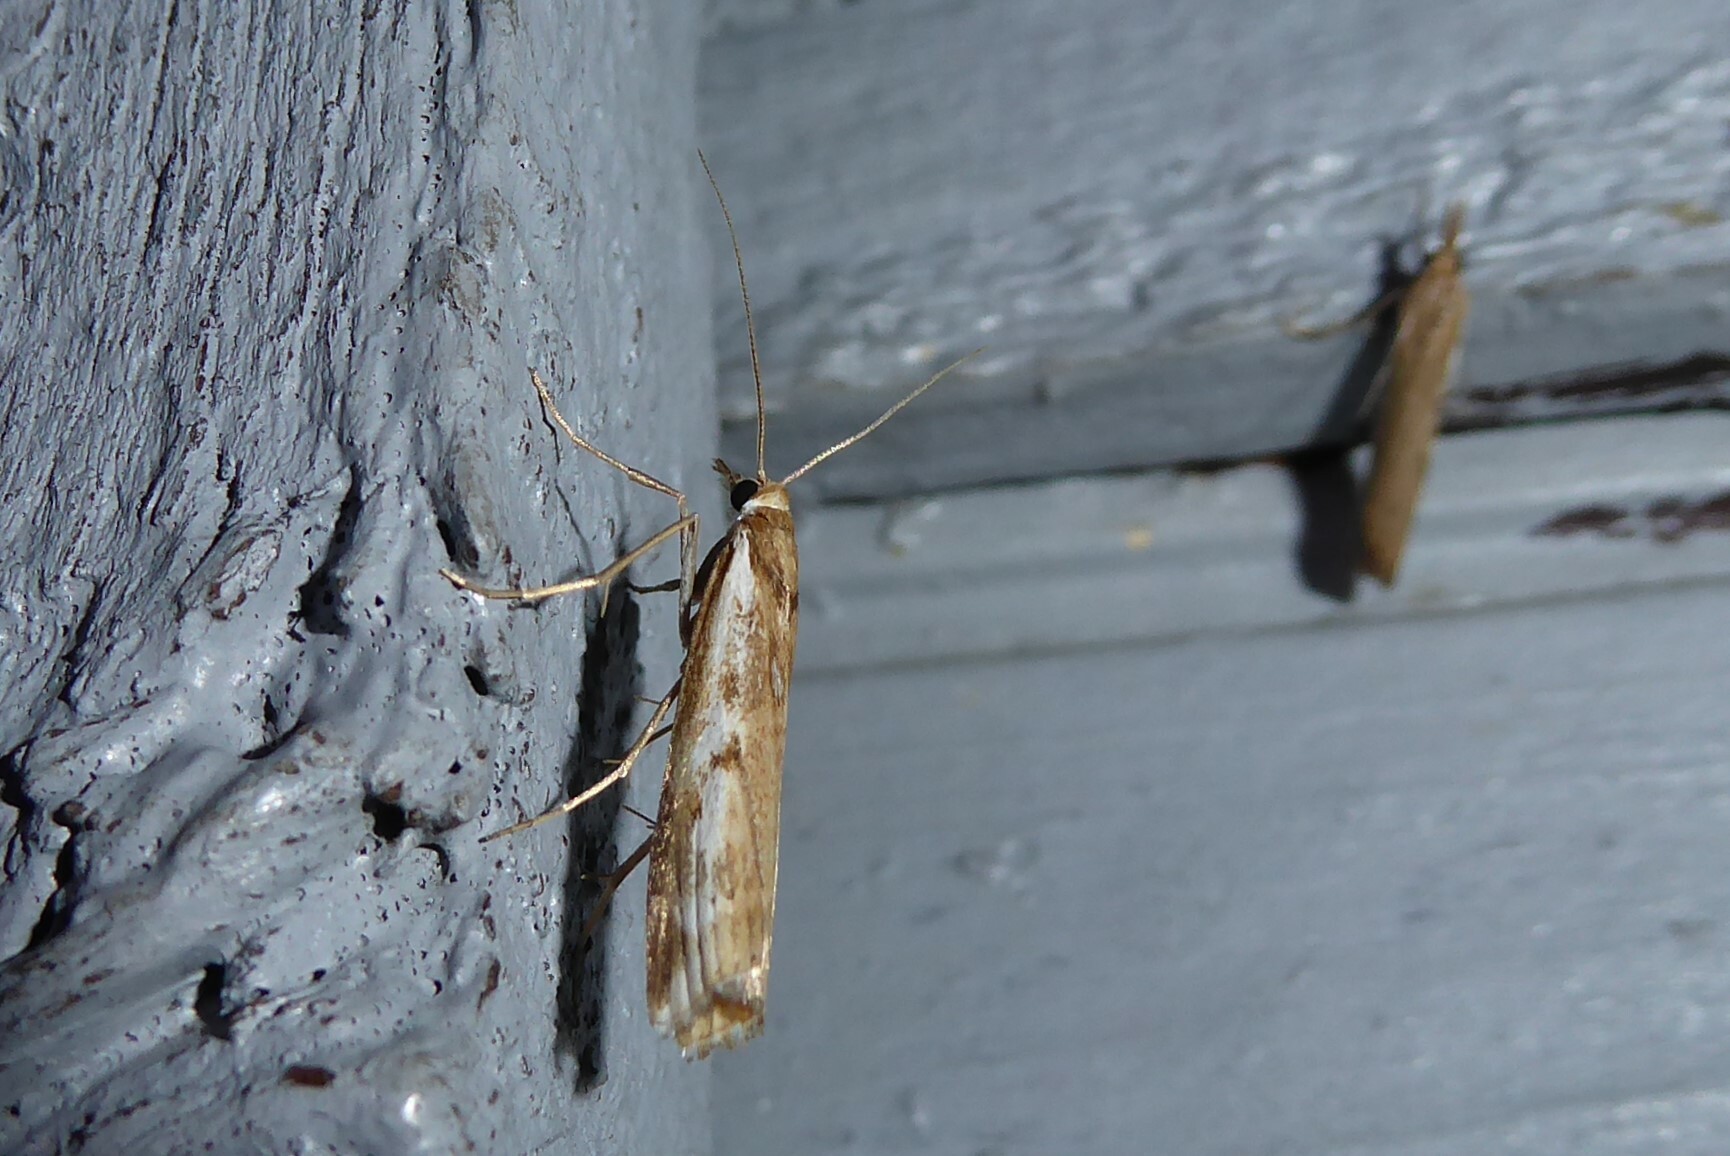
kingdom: Animalia
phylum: Arthropoda
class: Insecta
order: Lepidoptera
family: Crambidae
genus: Orocrambus
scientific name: Orocrambus vulgaris
